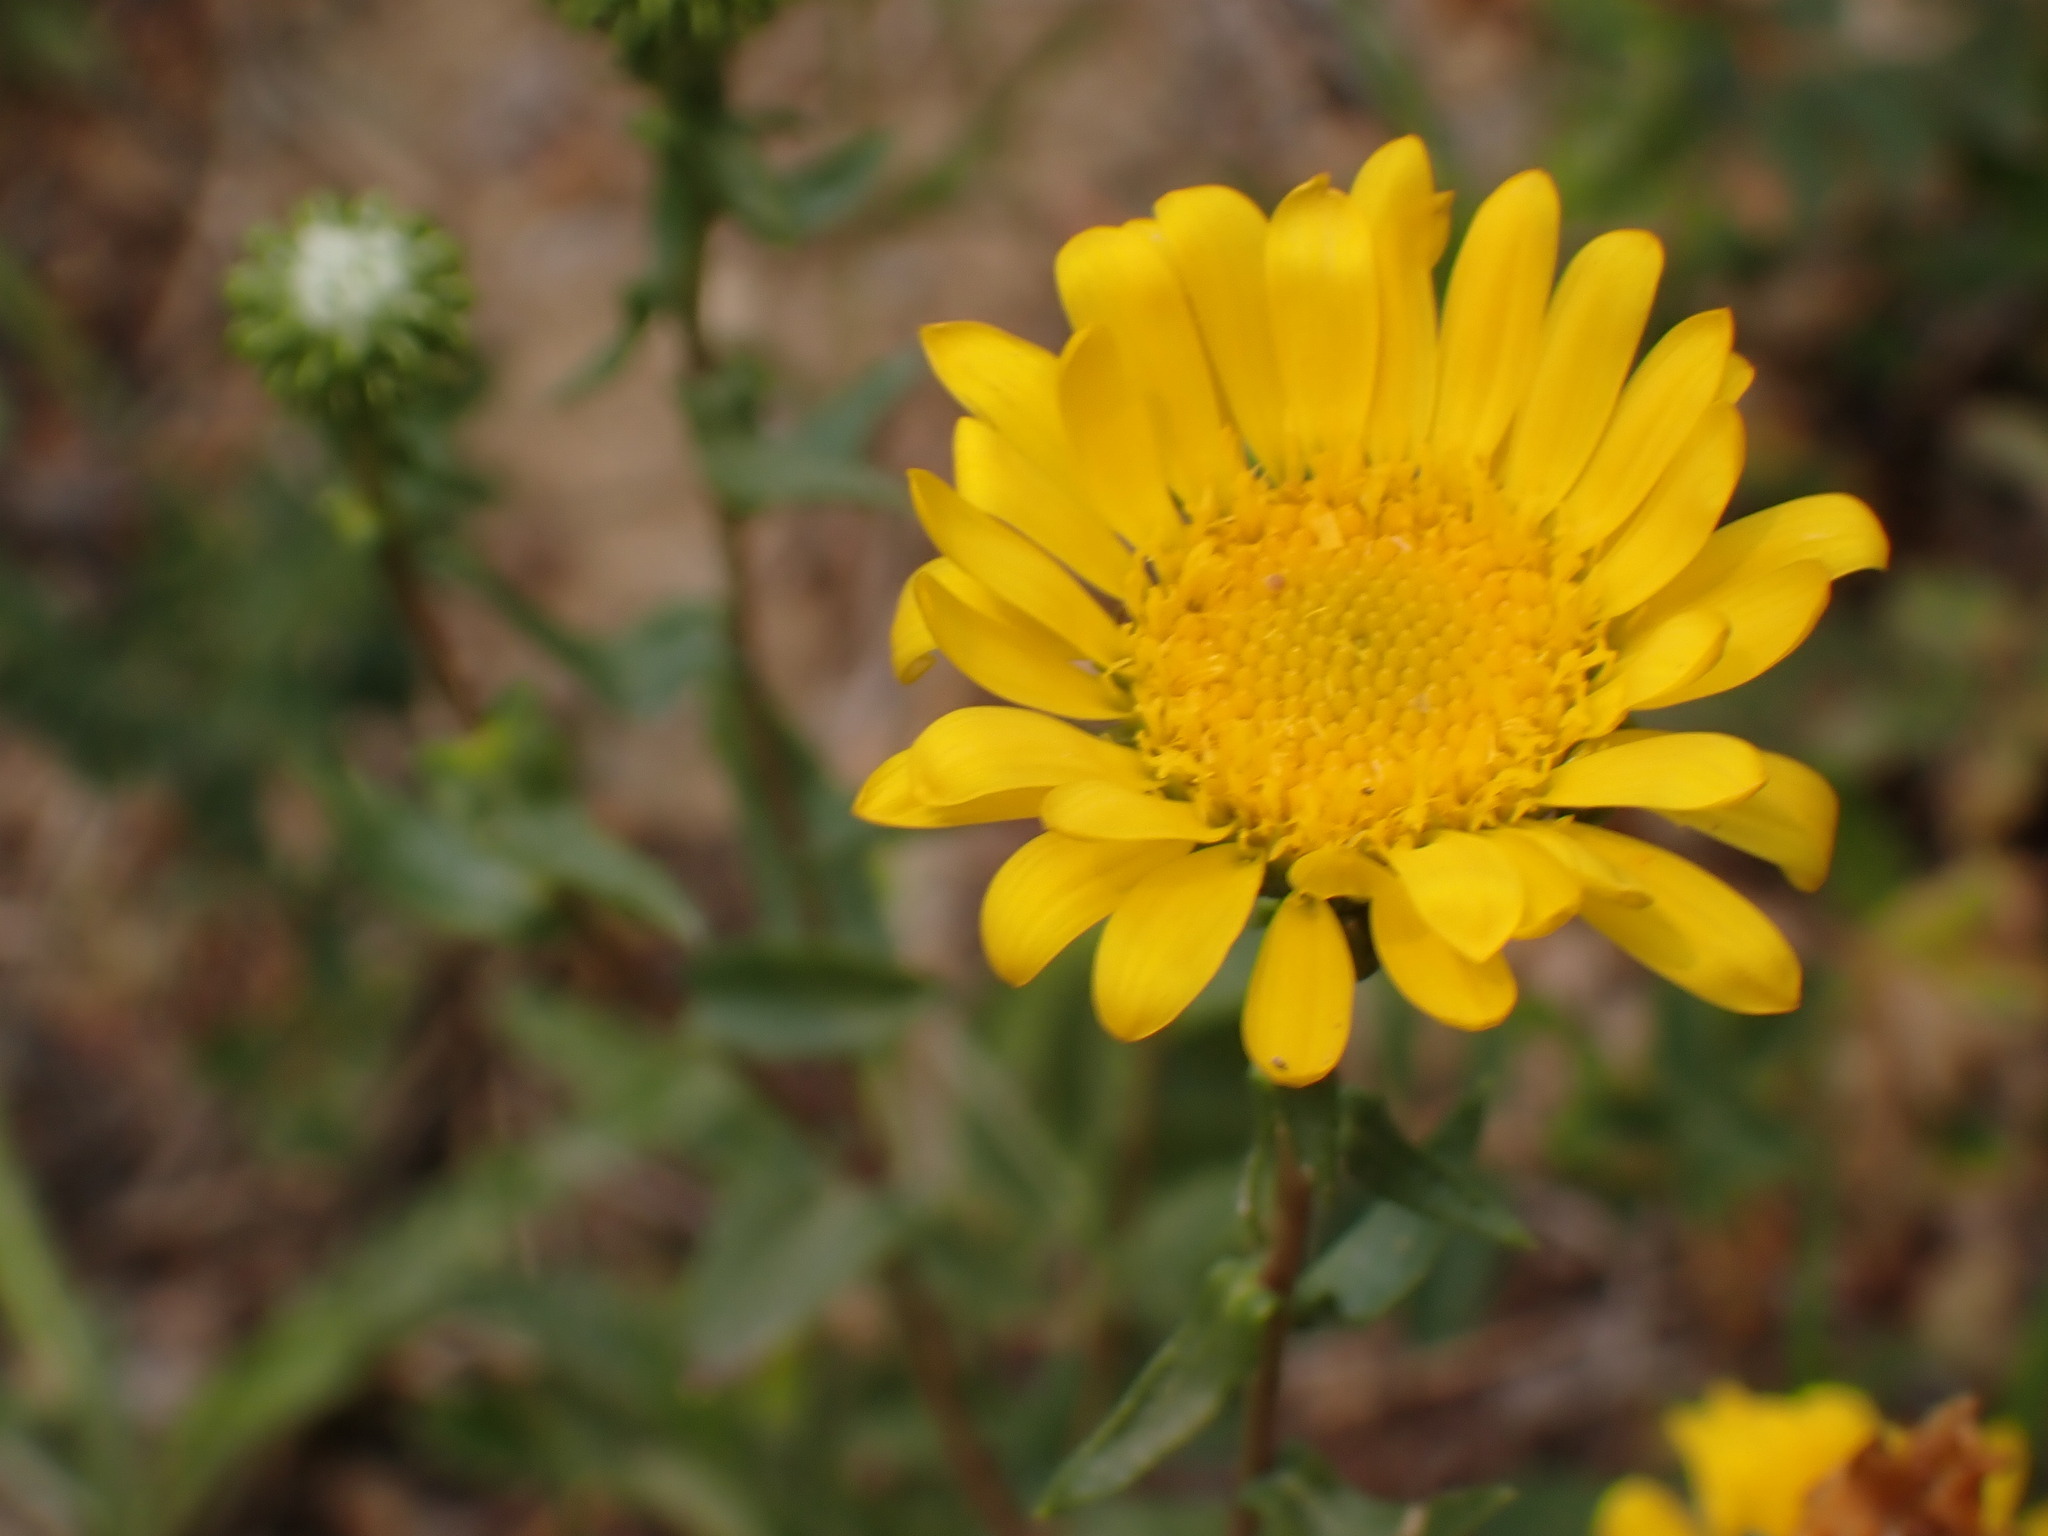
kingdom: Plantae
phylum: Tracheophyta
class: Magnoliopsida
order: Asterales
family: Asteraceae
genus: Grindelia
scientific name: Grindelia squarrosa
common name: Curly-cup gumweed
